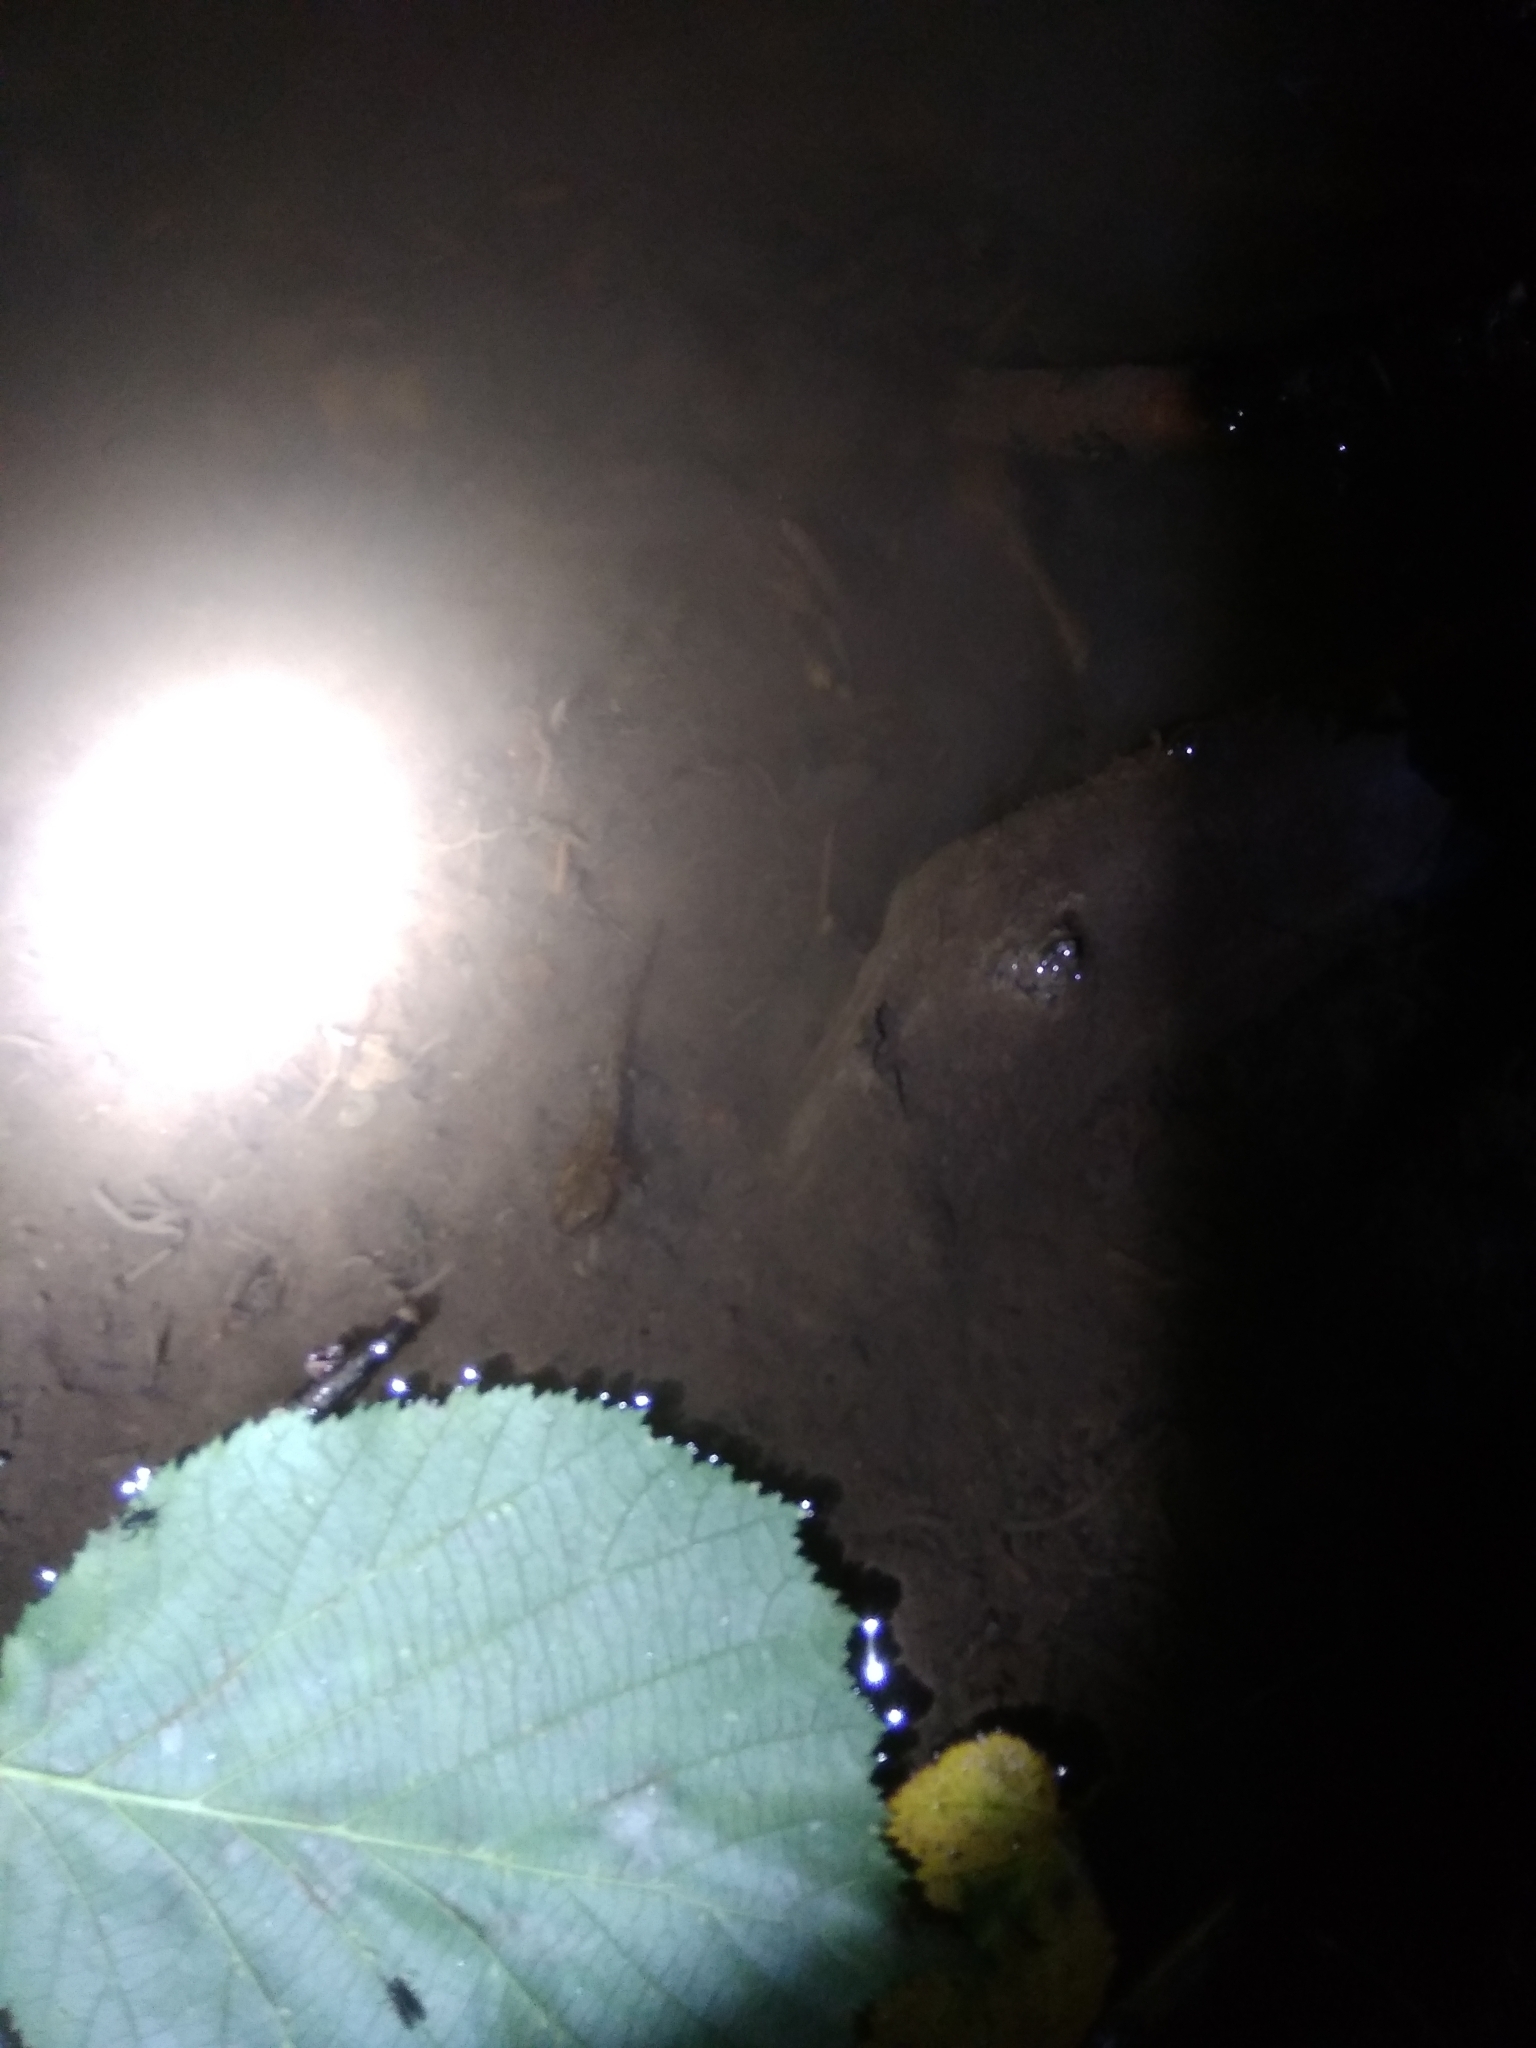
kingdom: Animalia
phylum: Chordata
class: Amphibia
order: Caudata
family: Salamandridae
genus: Salamandra
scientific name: Salamandra salamandra
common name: Fire salamander
